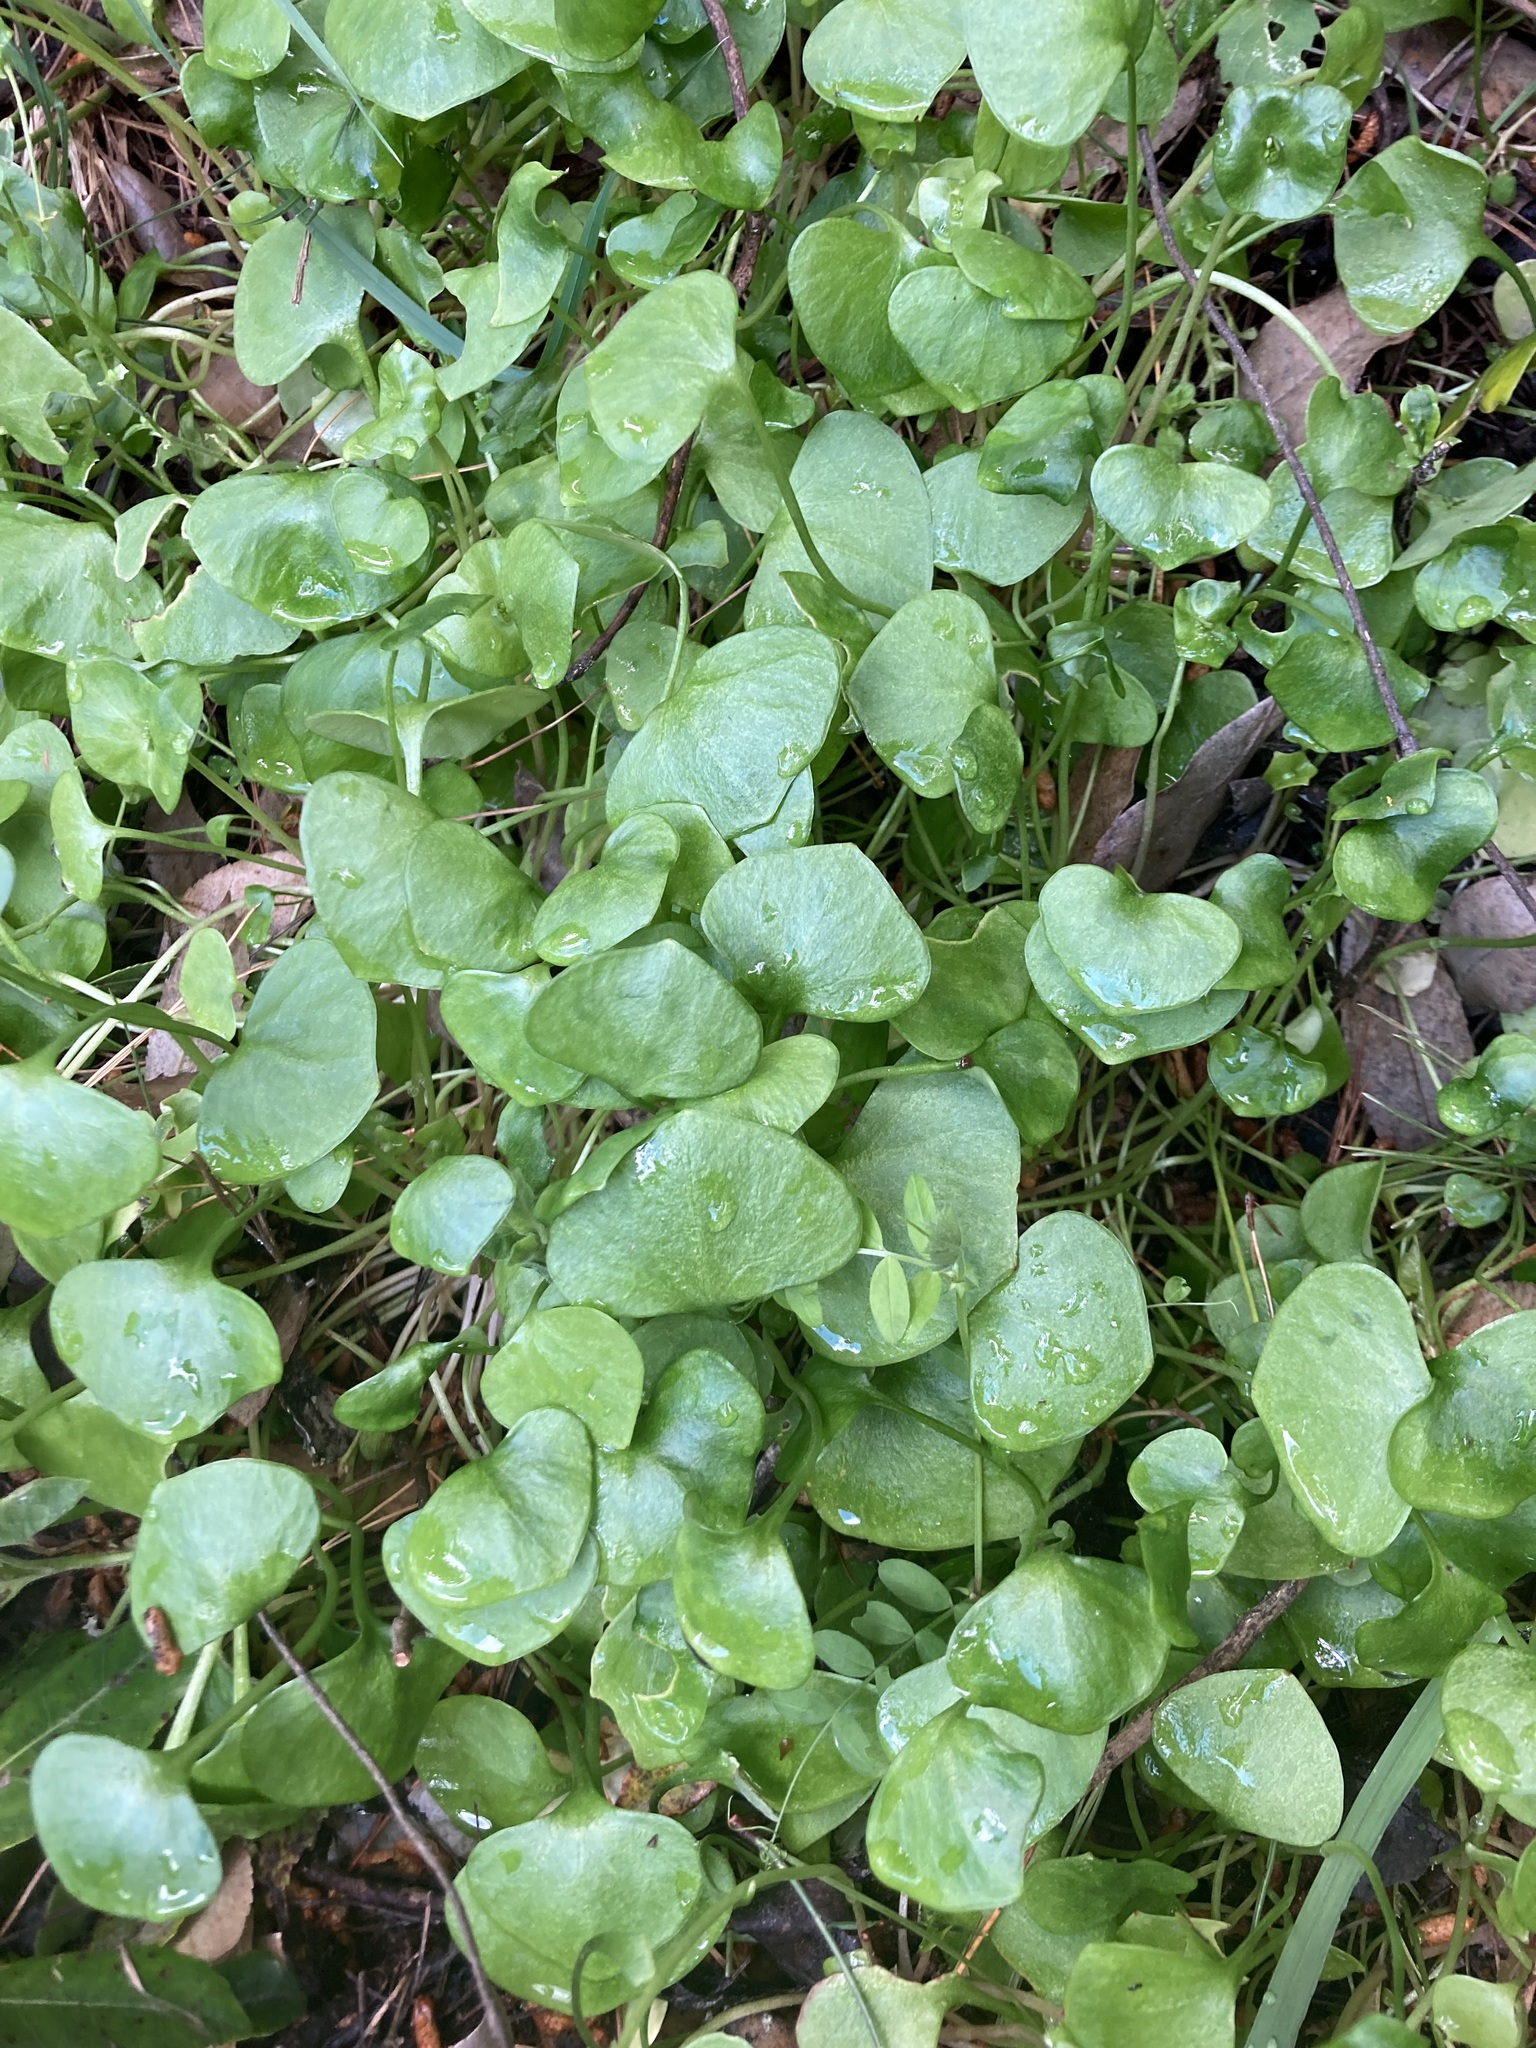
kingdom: Plantae
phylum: Tracheophyta
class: Magnoliopsida
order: Caryophyllales
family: Montiaceae
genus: Claytonia
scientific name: Claytonia perfoliata
